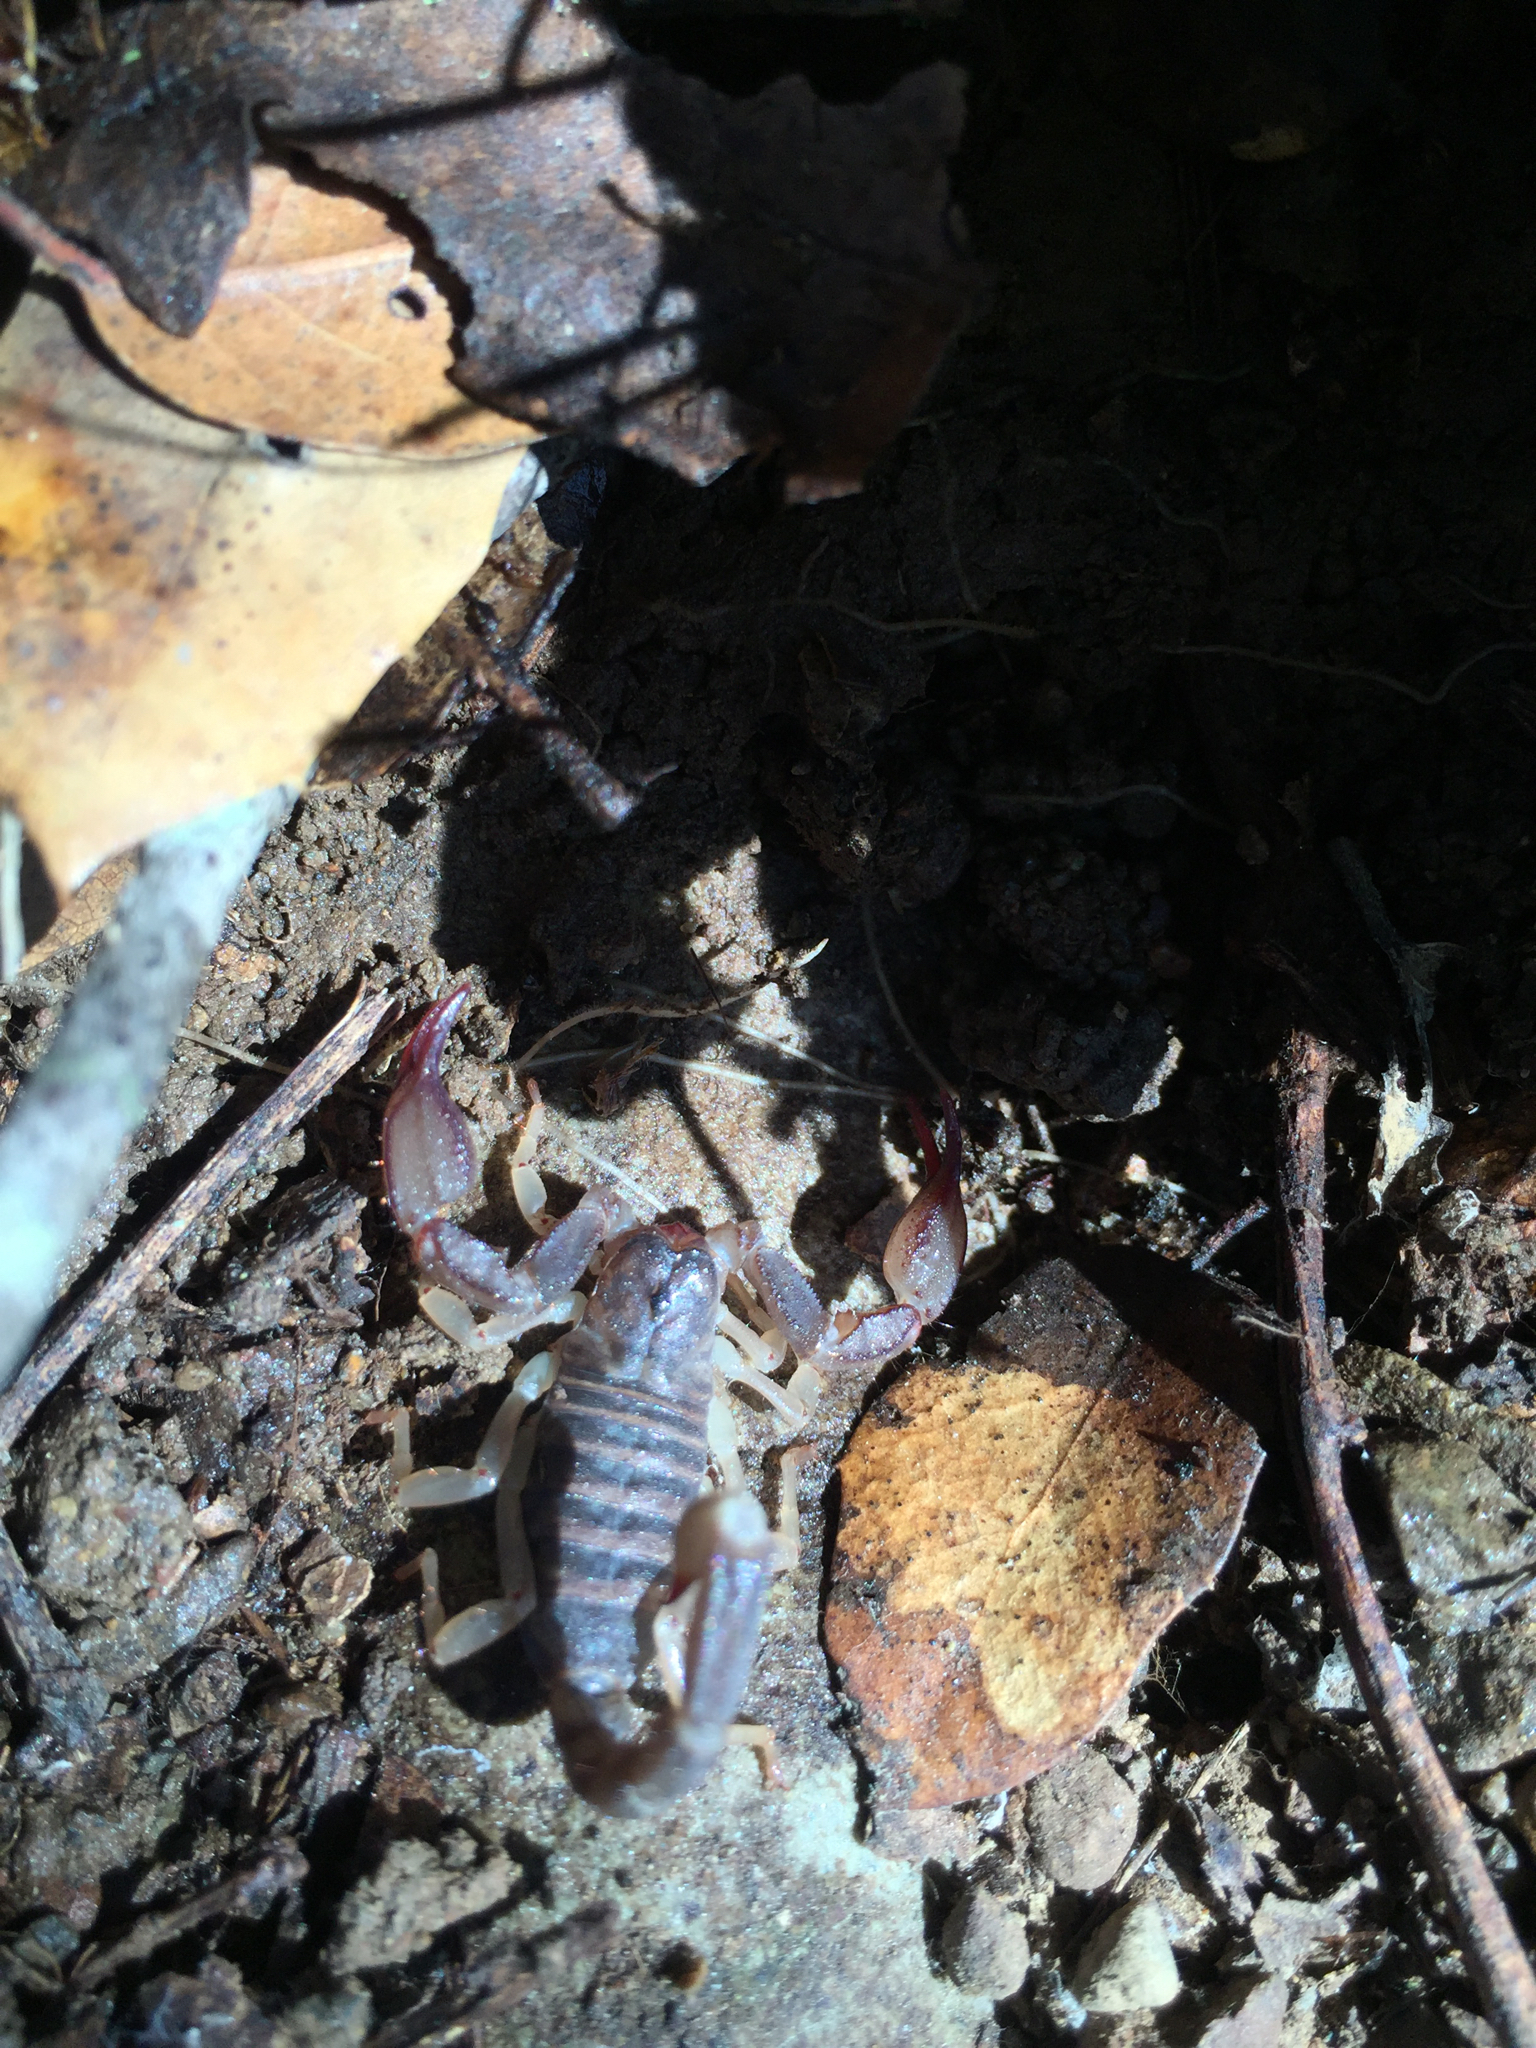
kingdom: Animalia
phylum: Arthropoda
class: Arachnida
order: Scorpiones
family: Chactidae
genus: Uroctonus
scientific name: Uroctonus mordax
